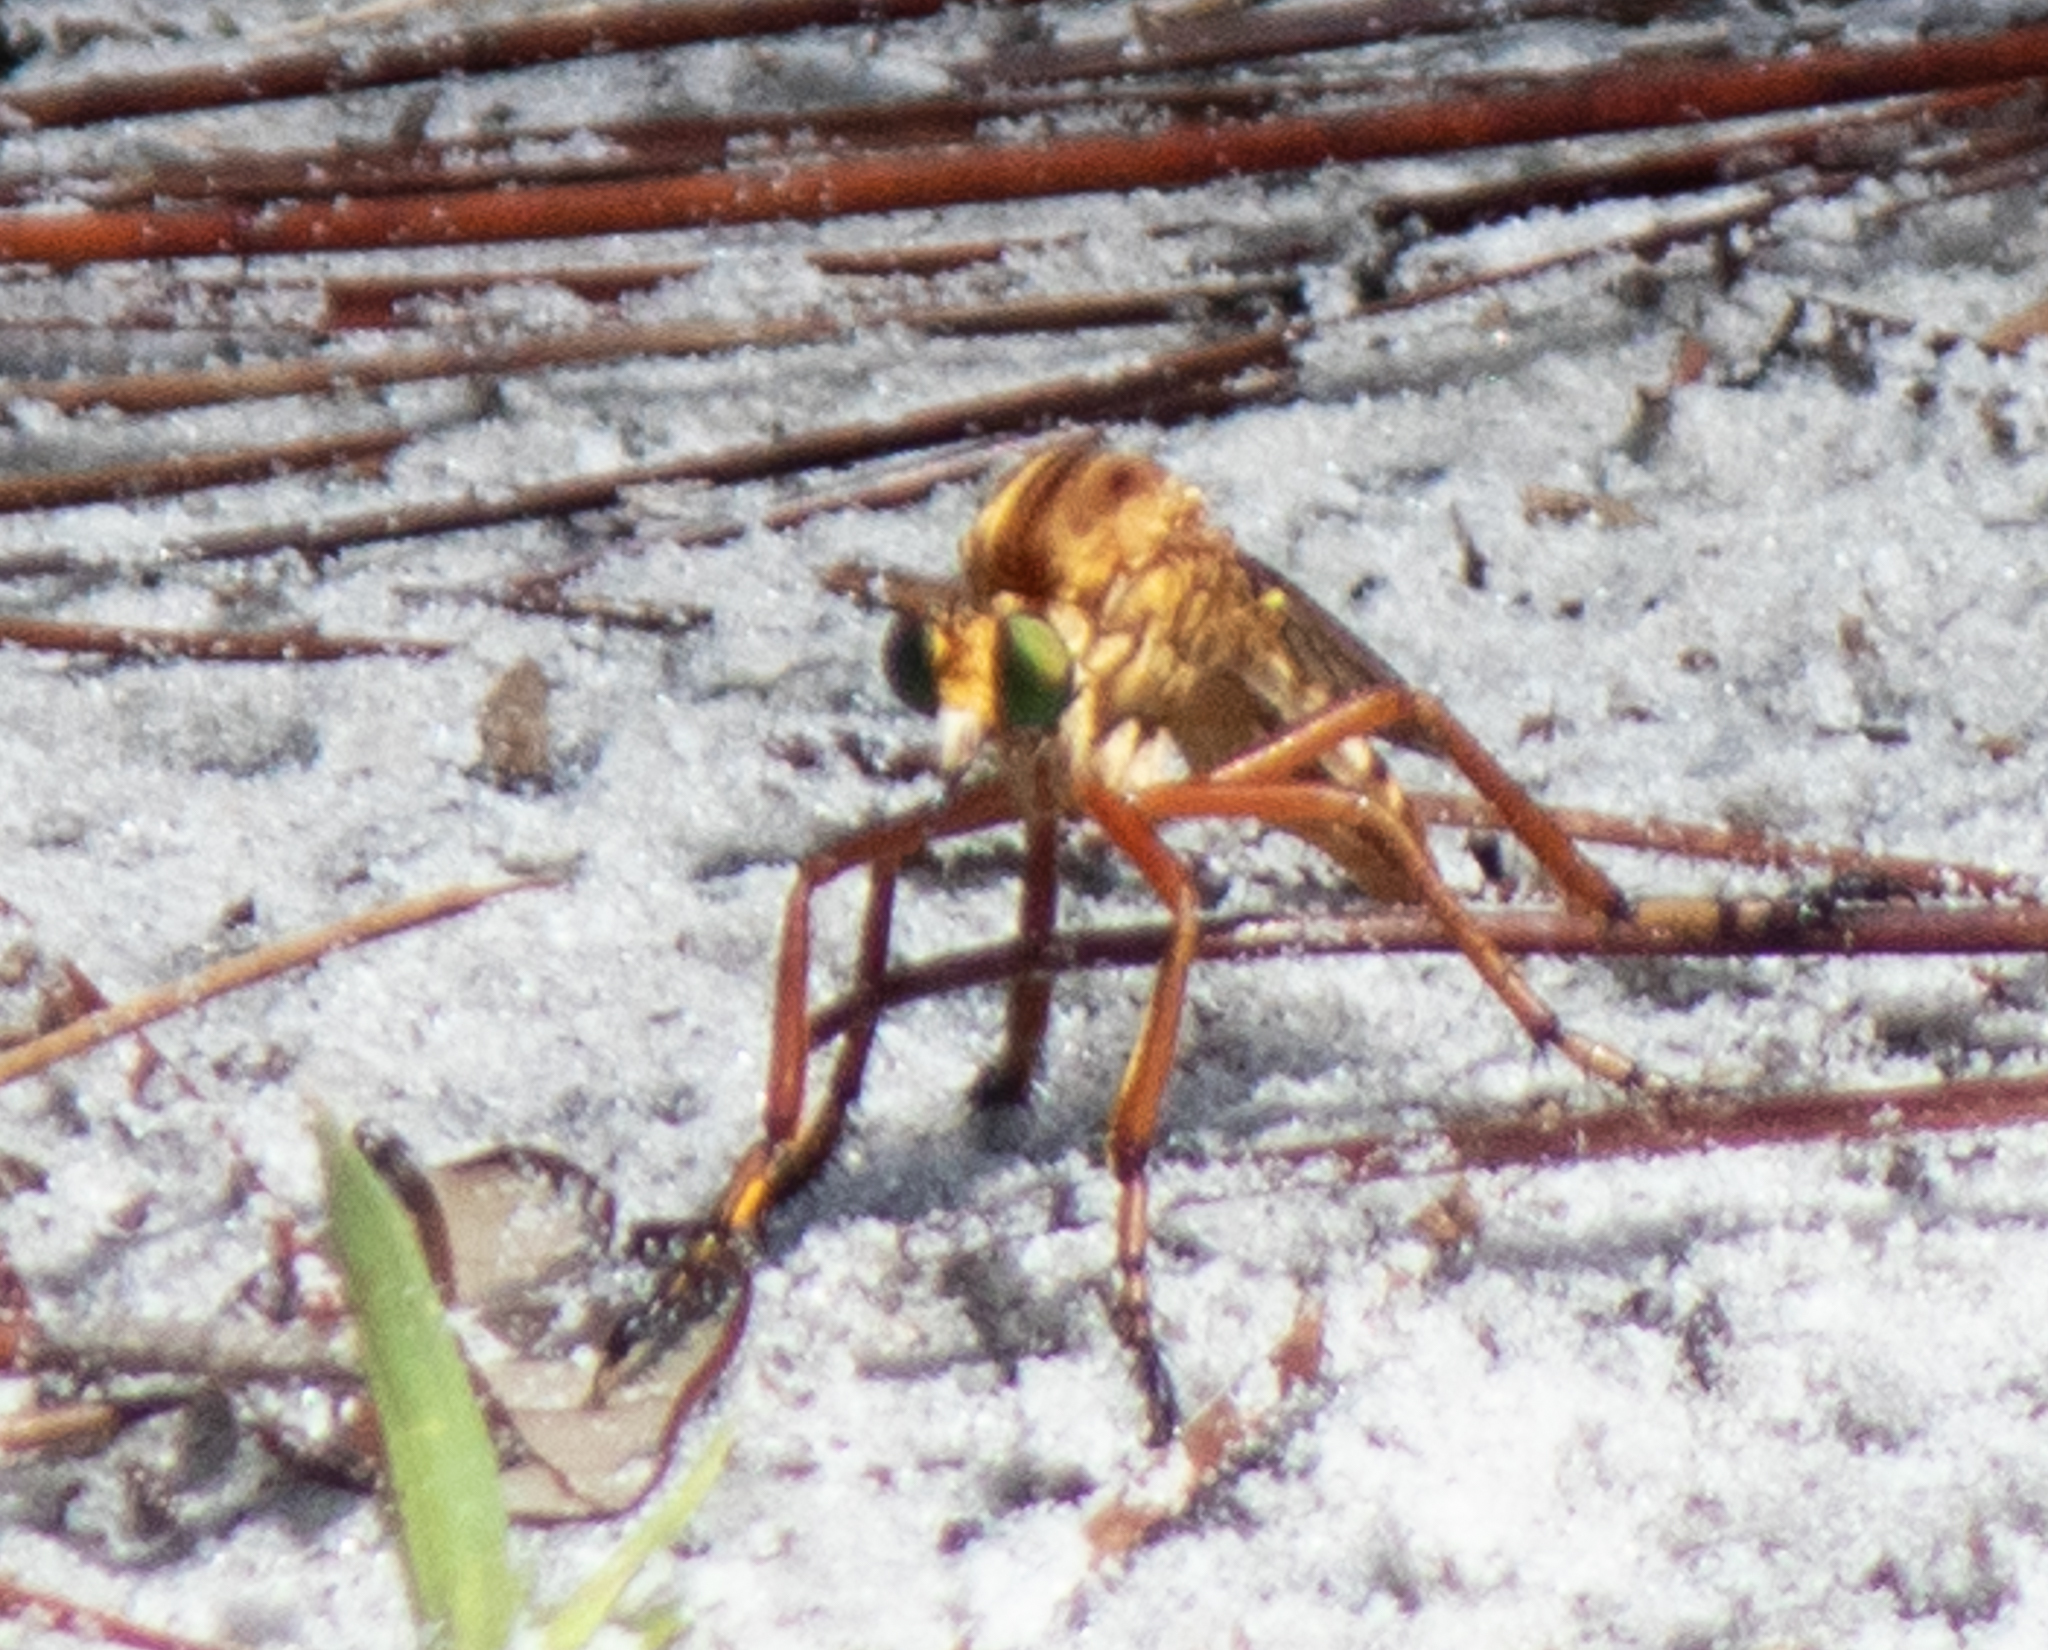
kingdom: Animalia
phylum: Arthropoda
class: Insecta
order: Diptera
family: Asilidae
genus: Diogmites
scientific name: Diogmites crudelis
